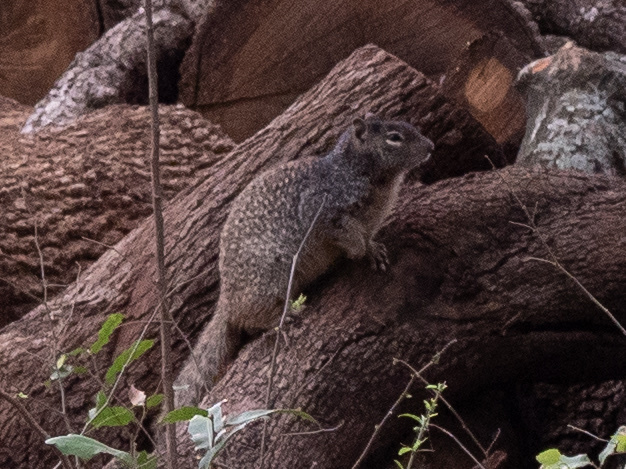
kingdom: Animalia
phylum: Chordata
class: Mammalia
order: Rodentia
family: Sciuridae
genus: Otospermophilus
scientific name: Otospermophilus variegatus
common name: Rock squirrel
